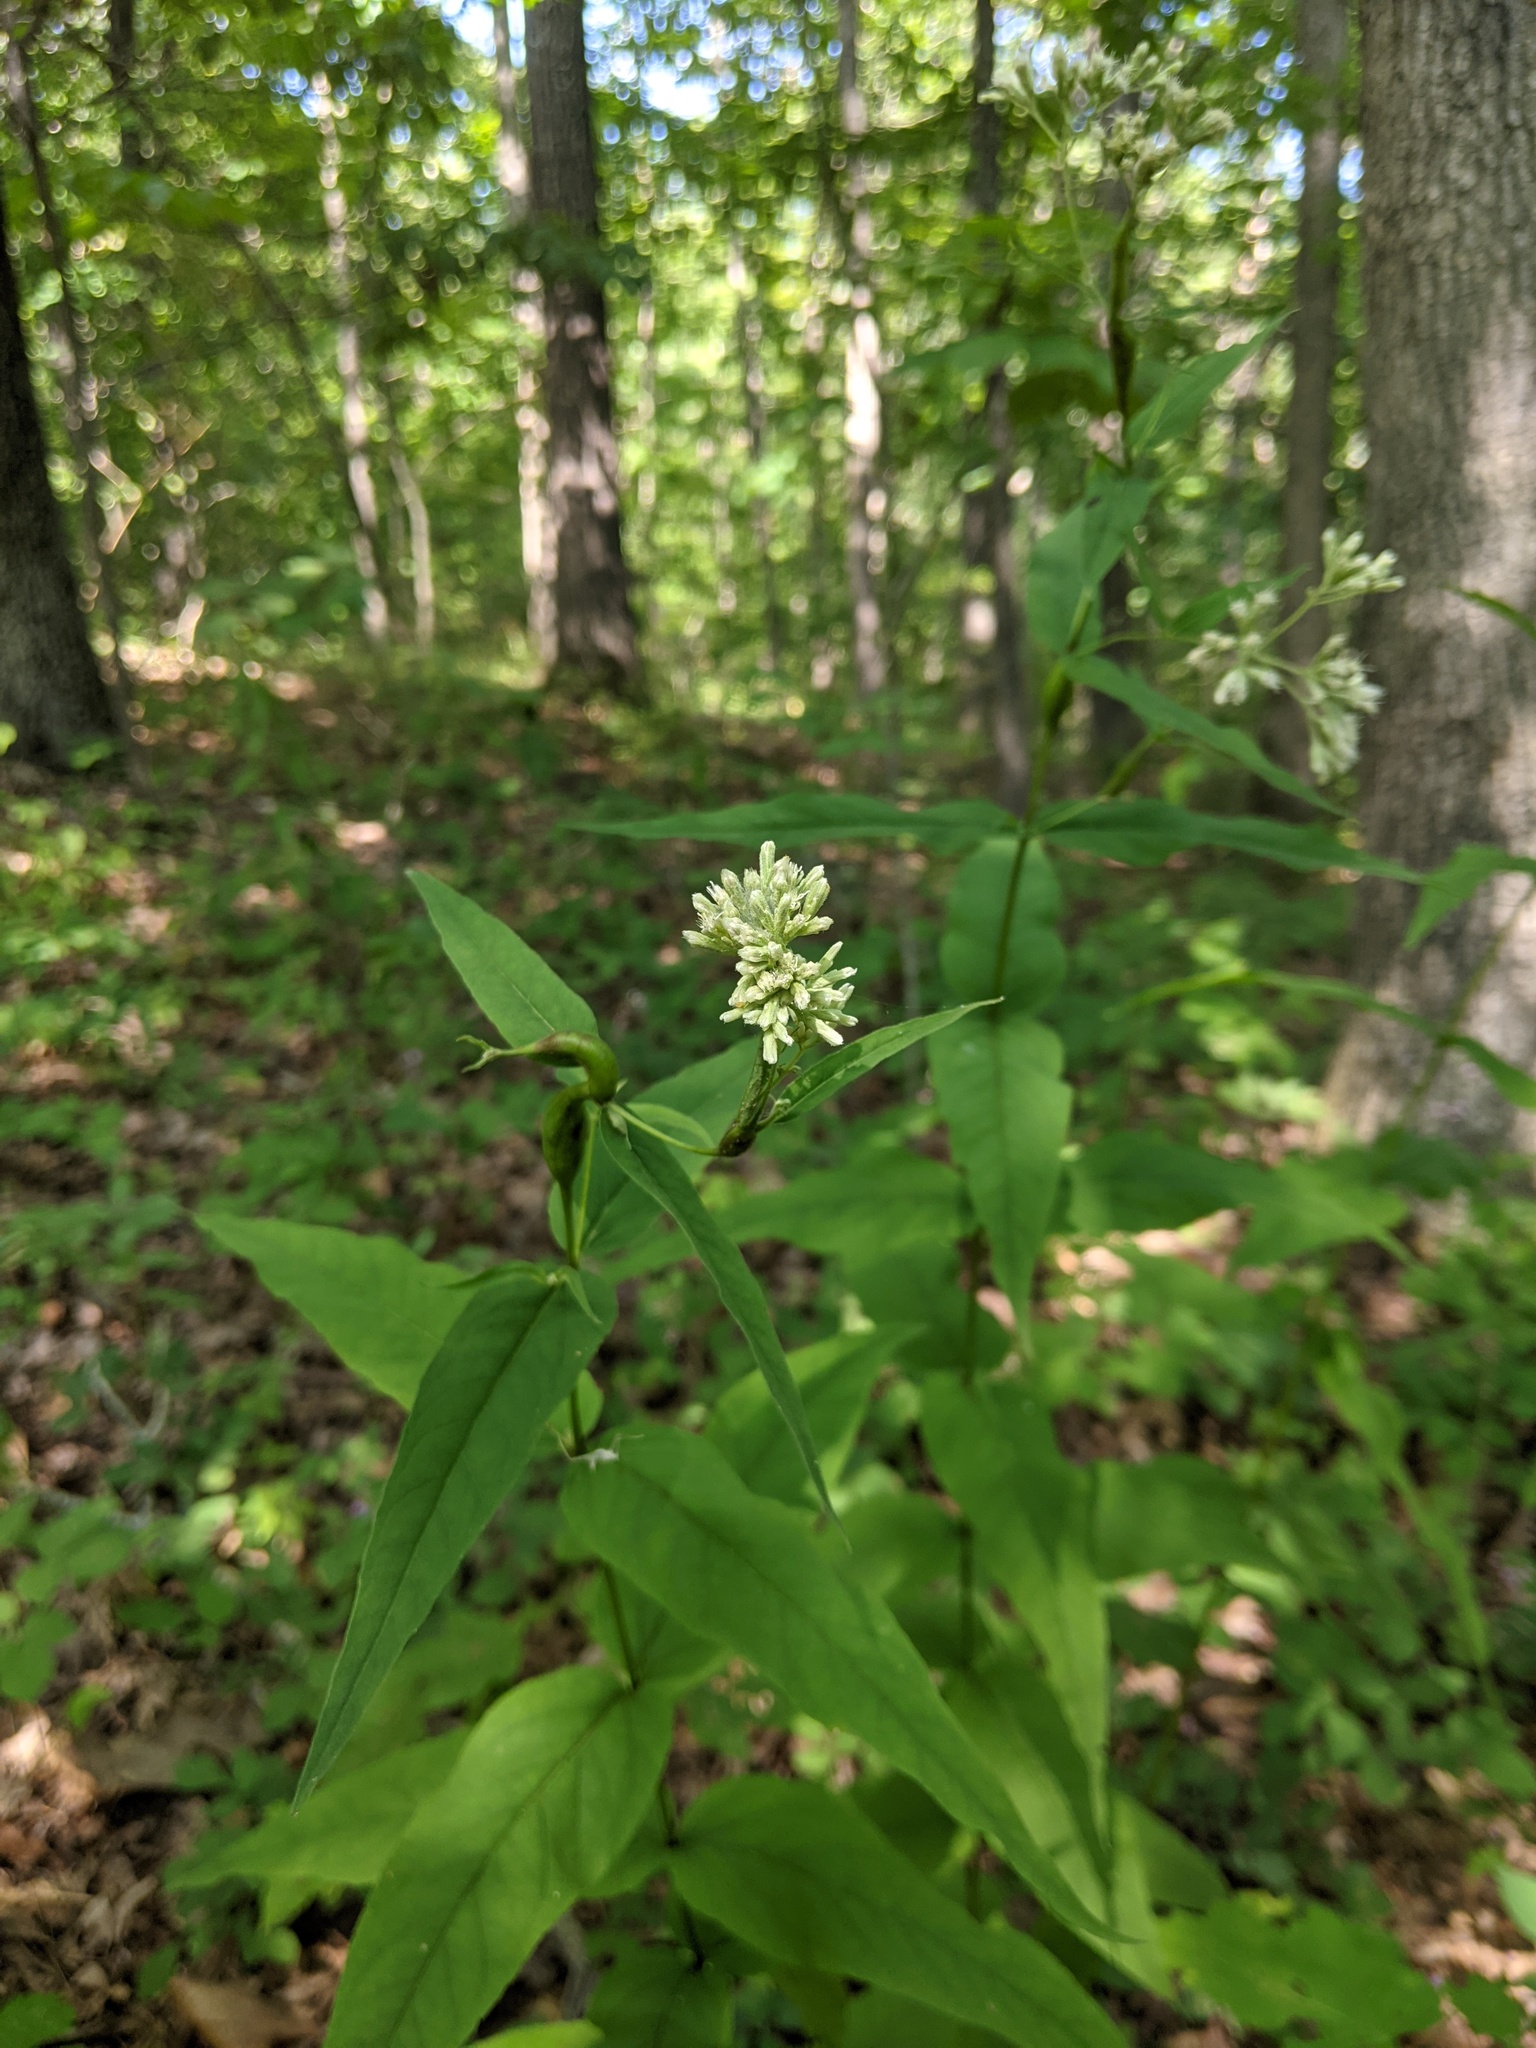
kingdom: Plantae
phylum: Tracheophyta
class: Magnoliopsida
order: Asterales
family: Asteraceae
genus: Eupatorium
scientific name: Eupatorium sessilifolium
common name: Upland boneset
